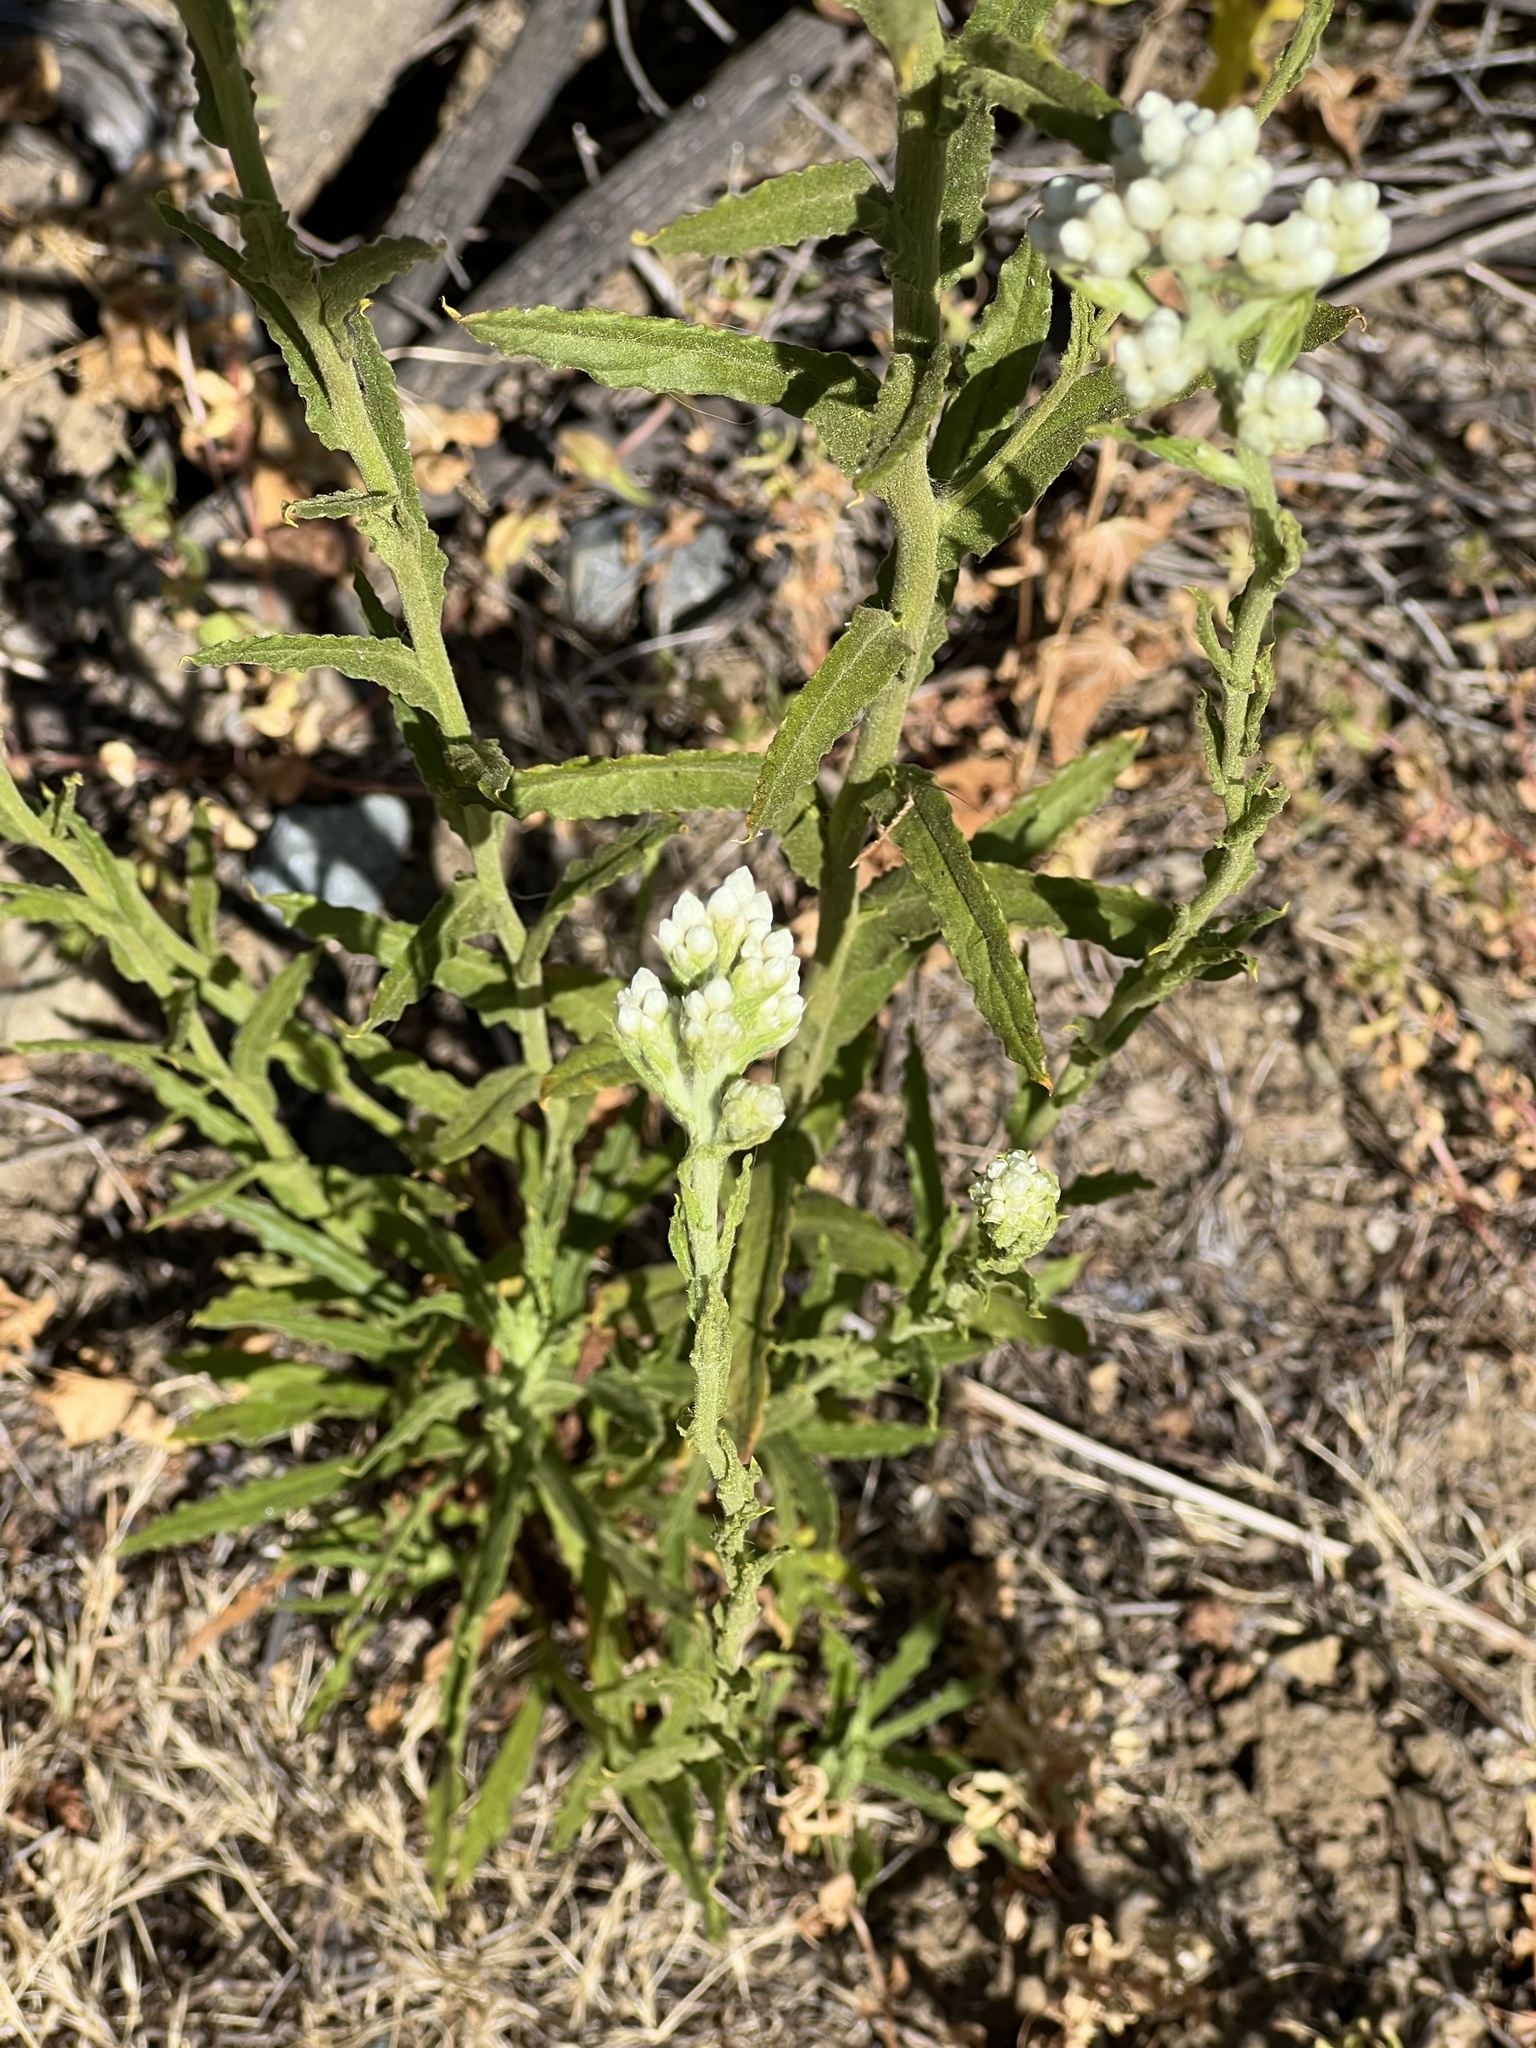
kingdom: Plantae
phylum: Tracheophyta
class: Magnoliopsida
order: Asterales
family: Asteraceae
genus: Pseudognaphalium
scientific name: Pseudognaphalium californicum
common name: California rabbit-tobacco
